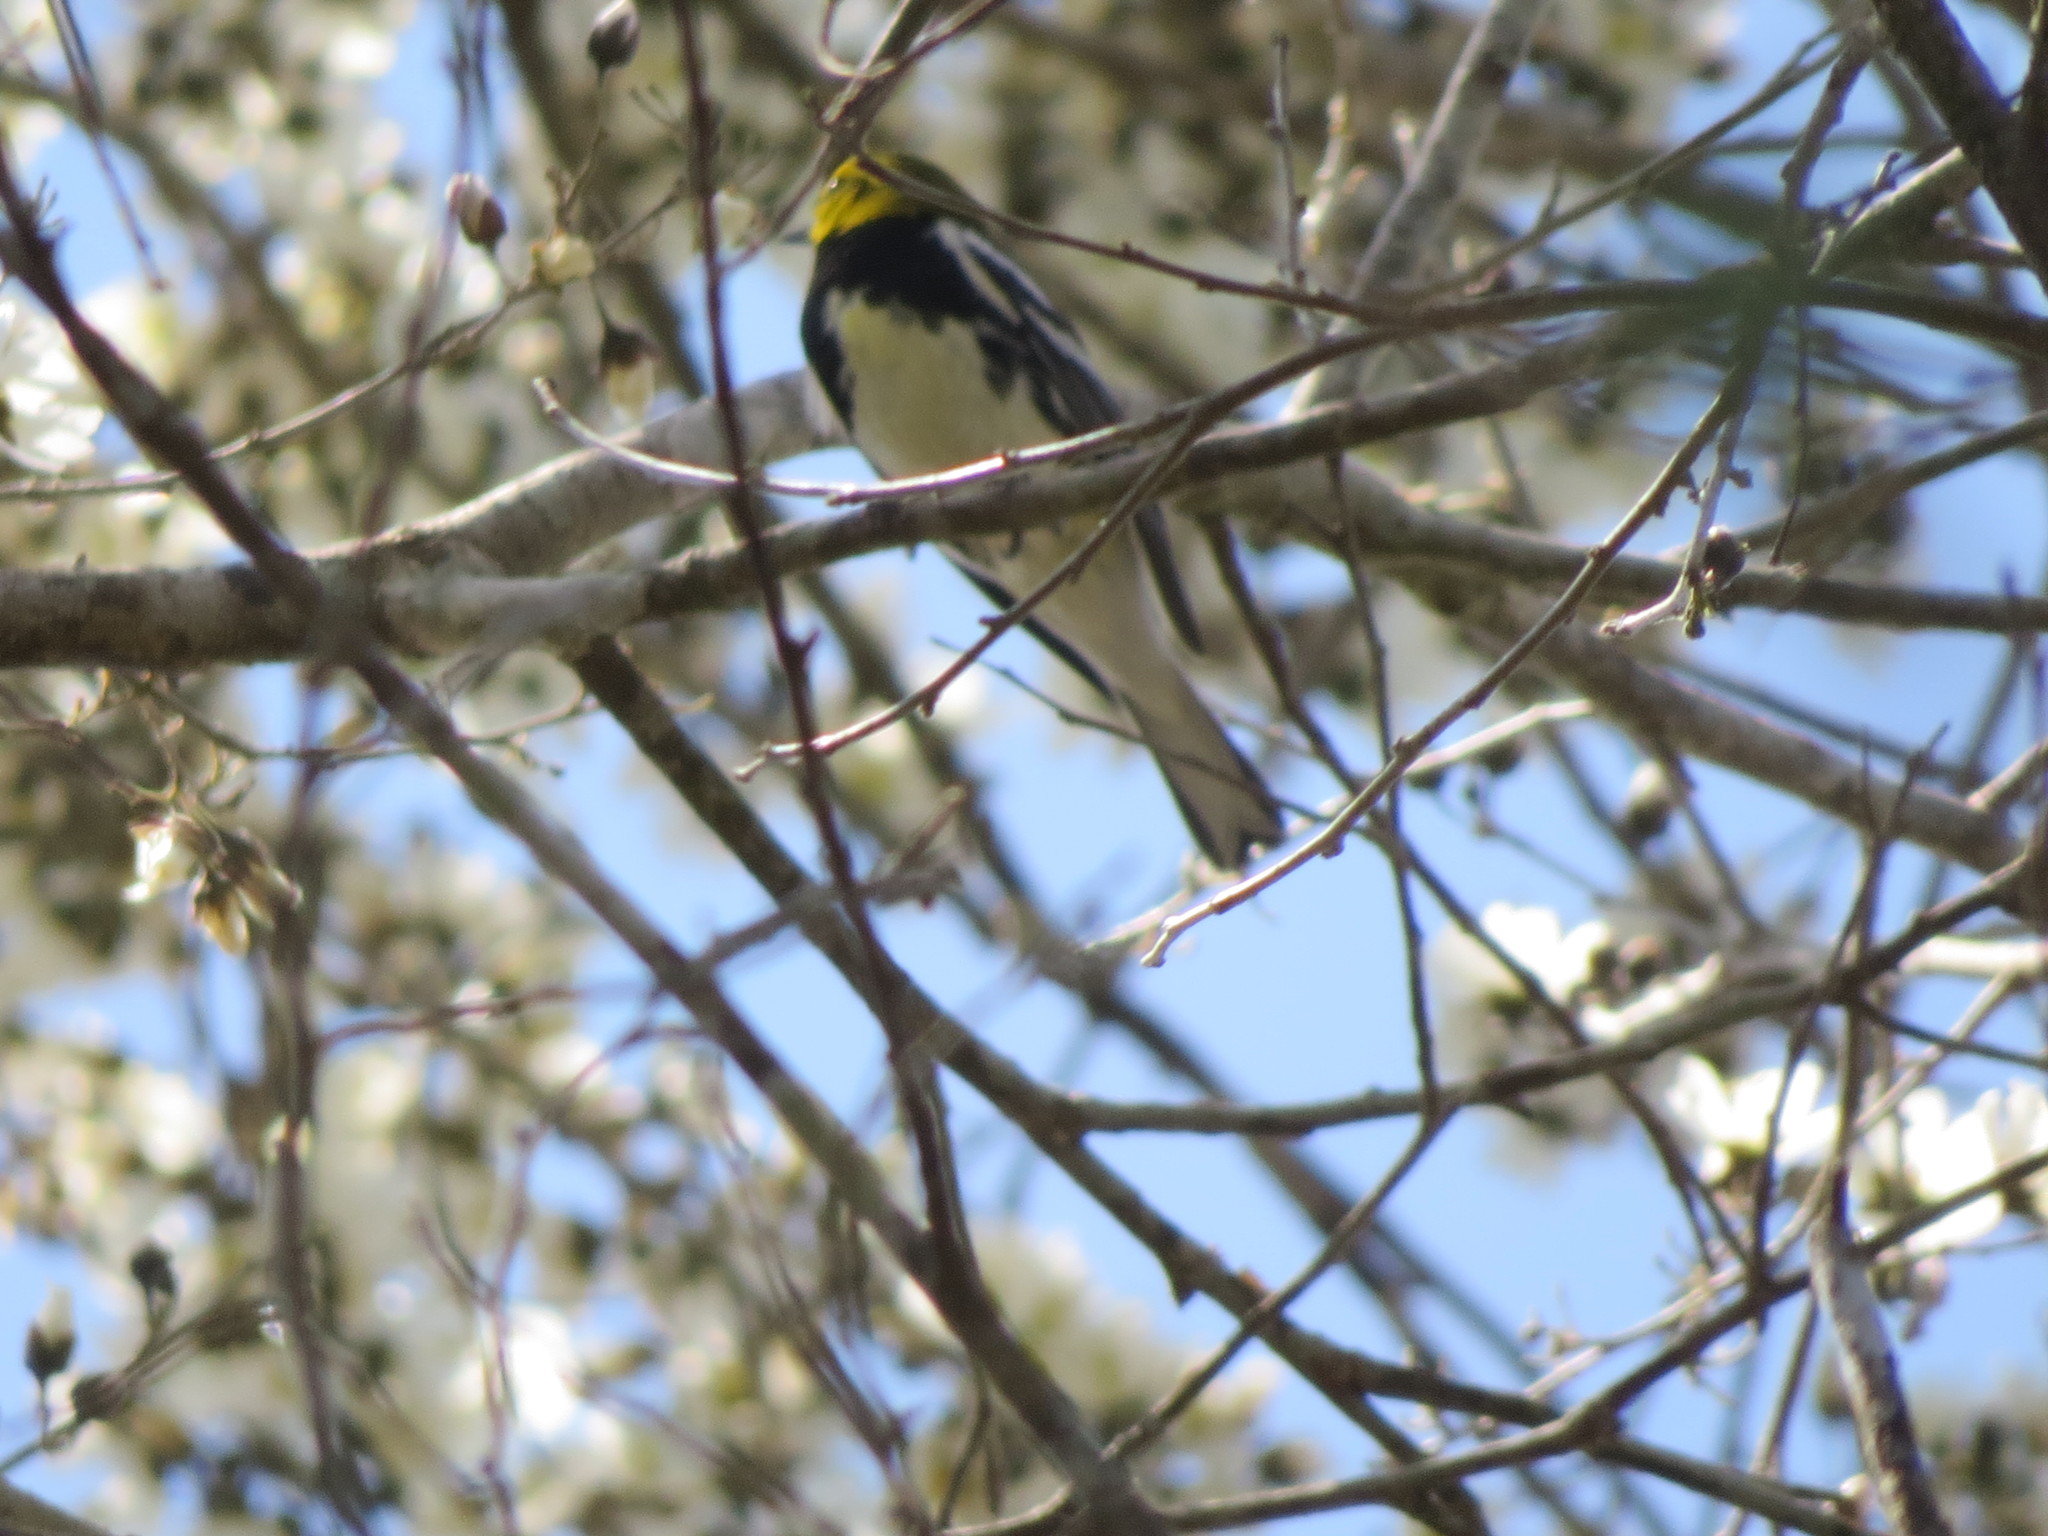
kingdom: Animalia
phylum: Chordata
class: Aves
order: Passeriformes
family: Parulidae
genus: Setophaga
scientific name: Setophaga virens
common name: Black-throated green warbler
